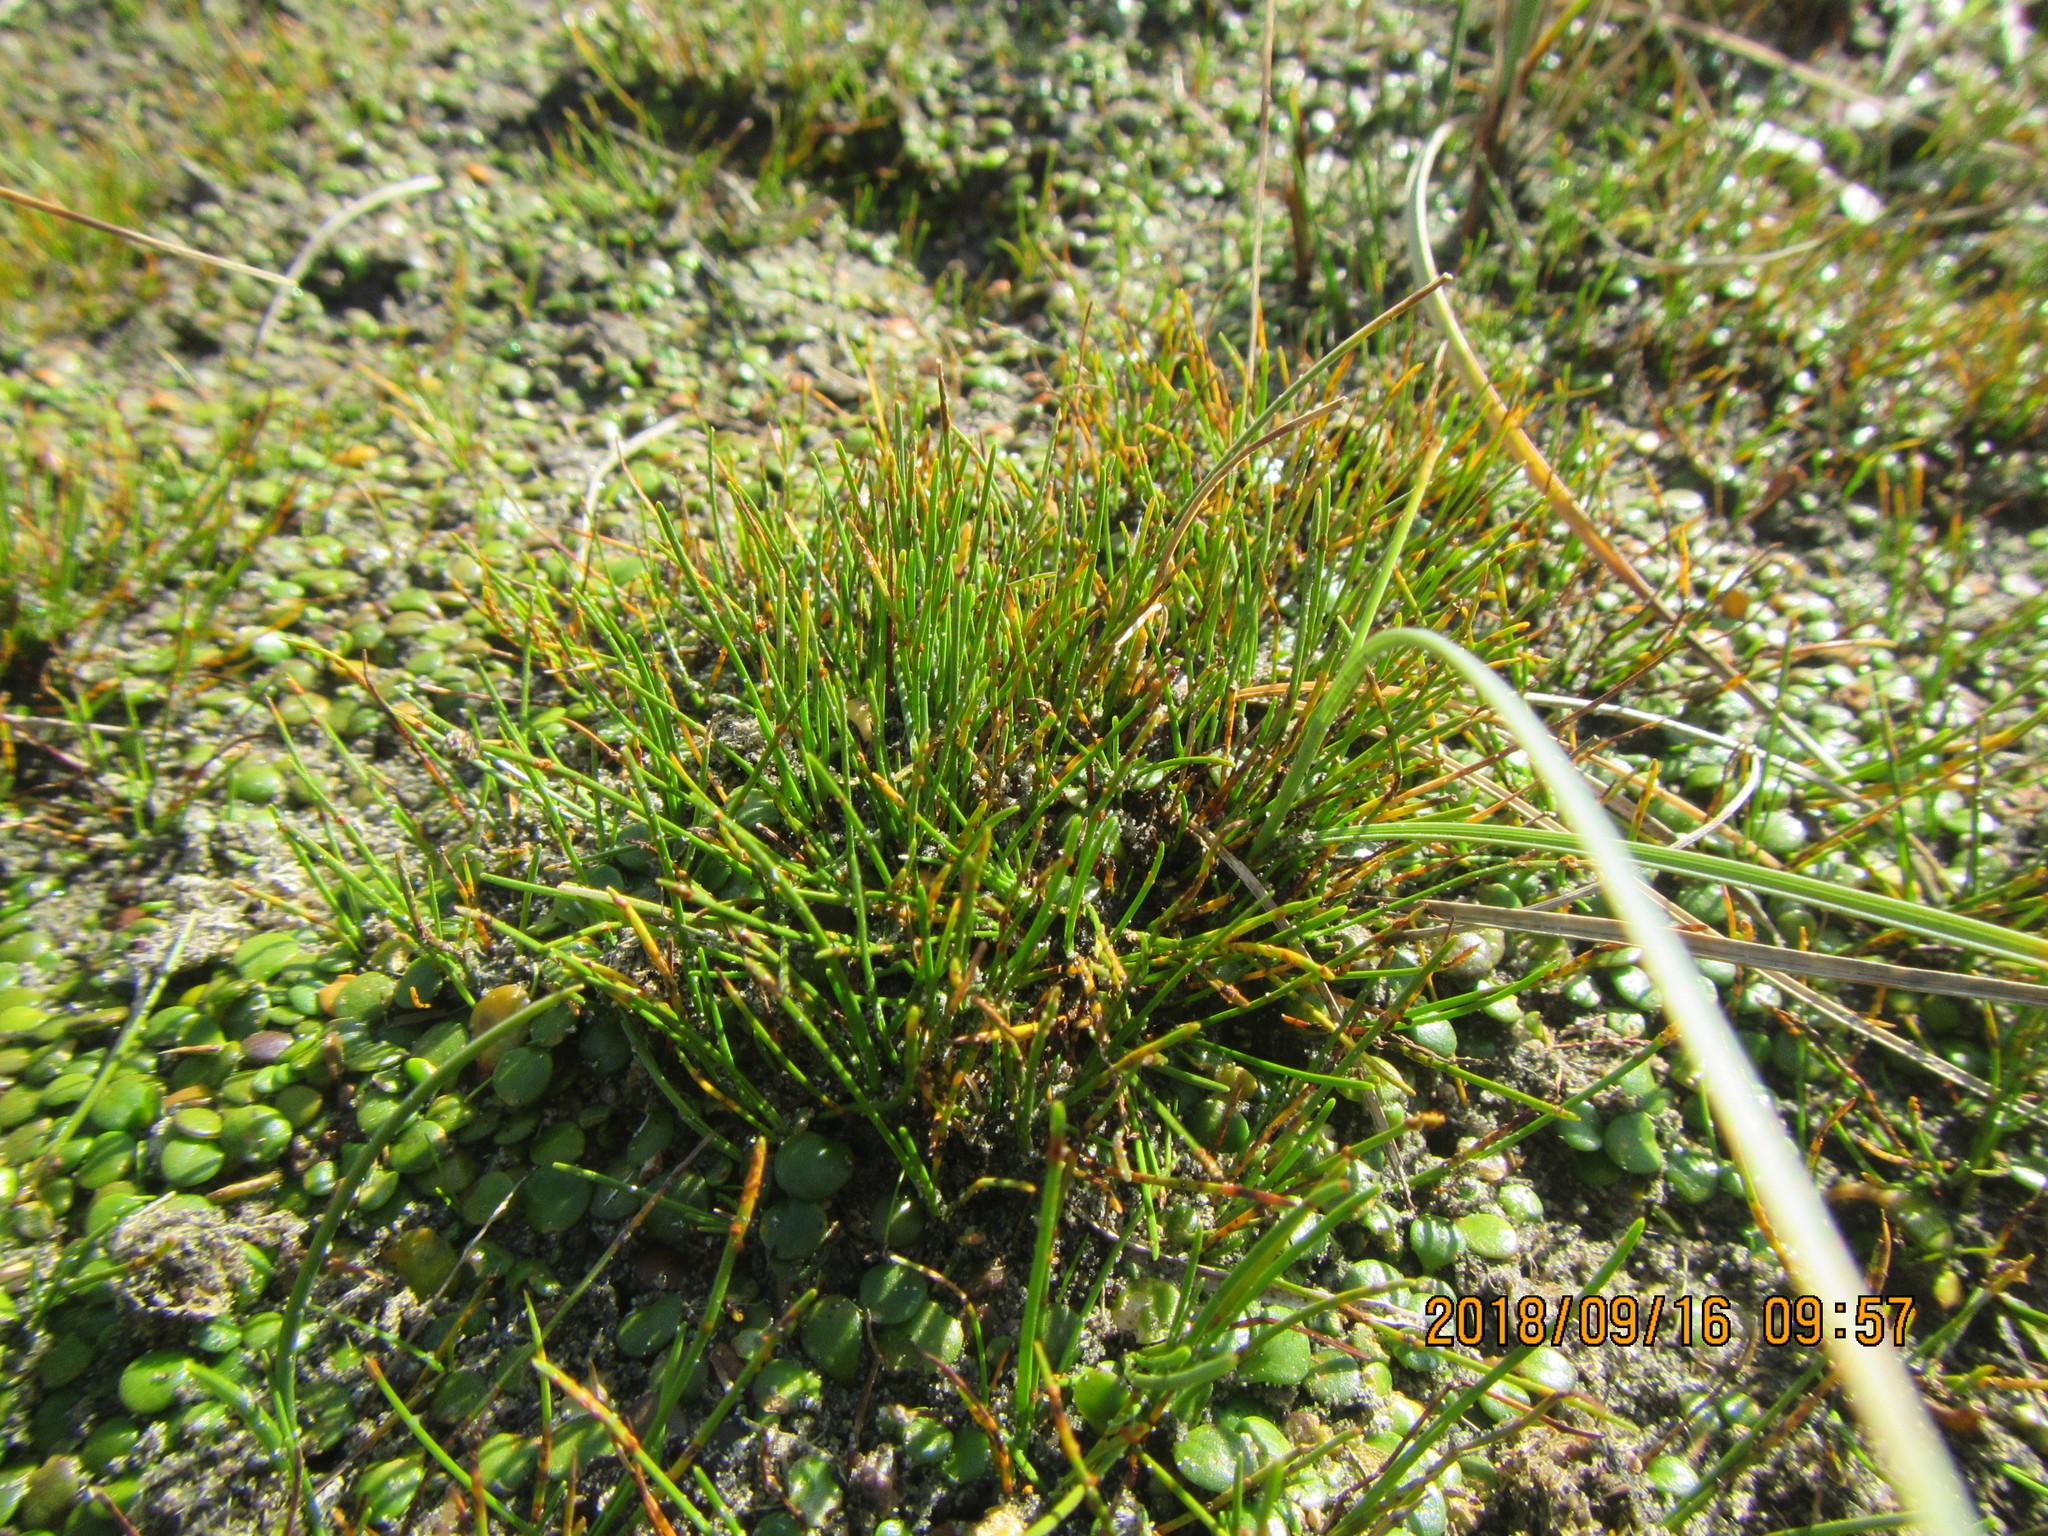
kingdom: Plantae
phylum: Tracheophyta
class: Liliopsida
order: Poales
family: Cyperaceae
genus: Isolepis
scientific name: Isolepis cernua
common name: Slender club-rush
